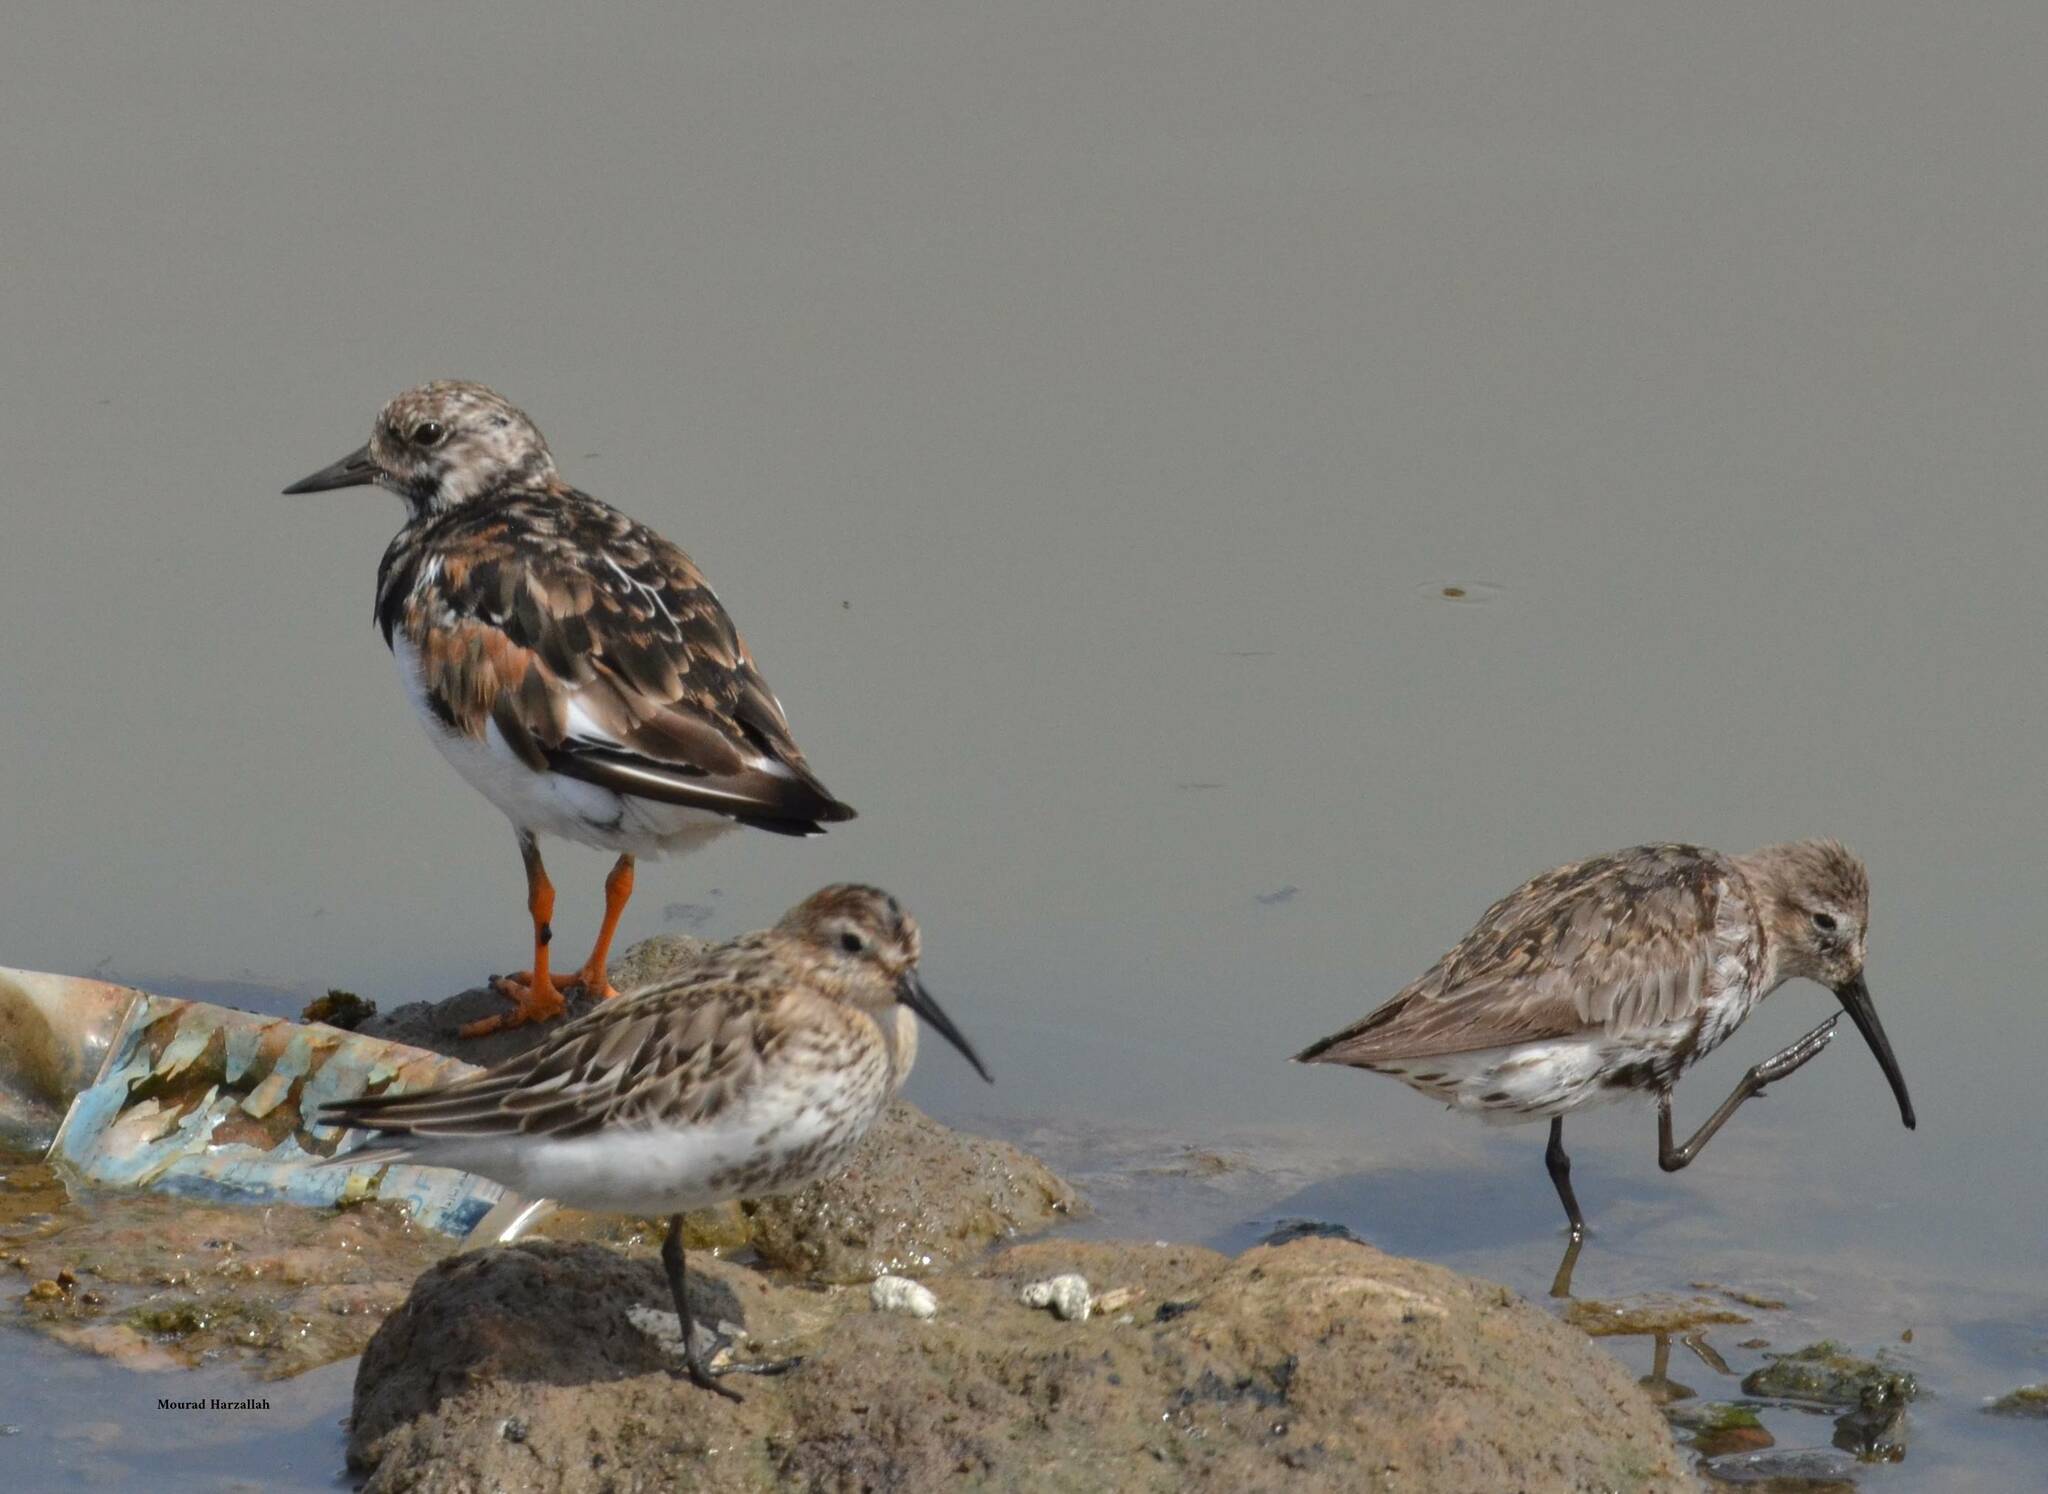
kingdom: Animalia
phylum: Chordata
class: Aves
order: Charadriiformes
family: Scolopacidae
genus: Calidris
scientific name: Calidris alpina
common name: Dunlin
